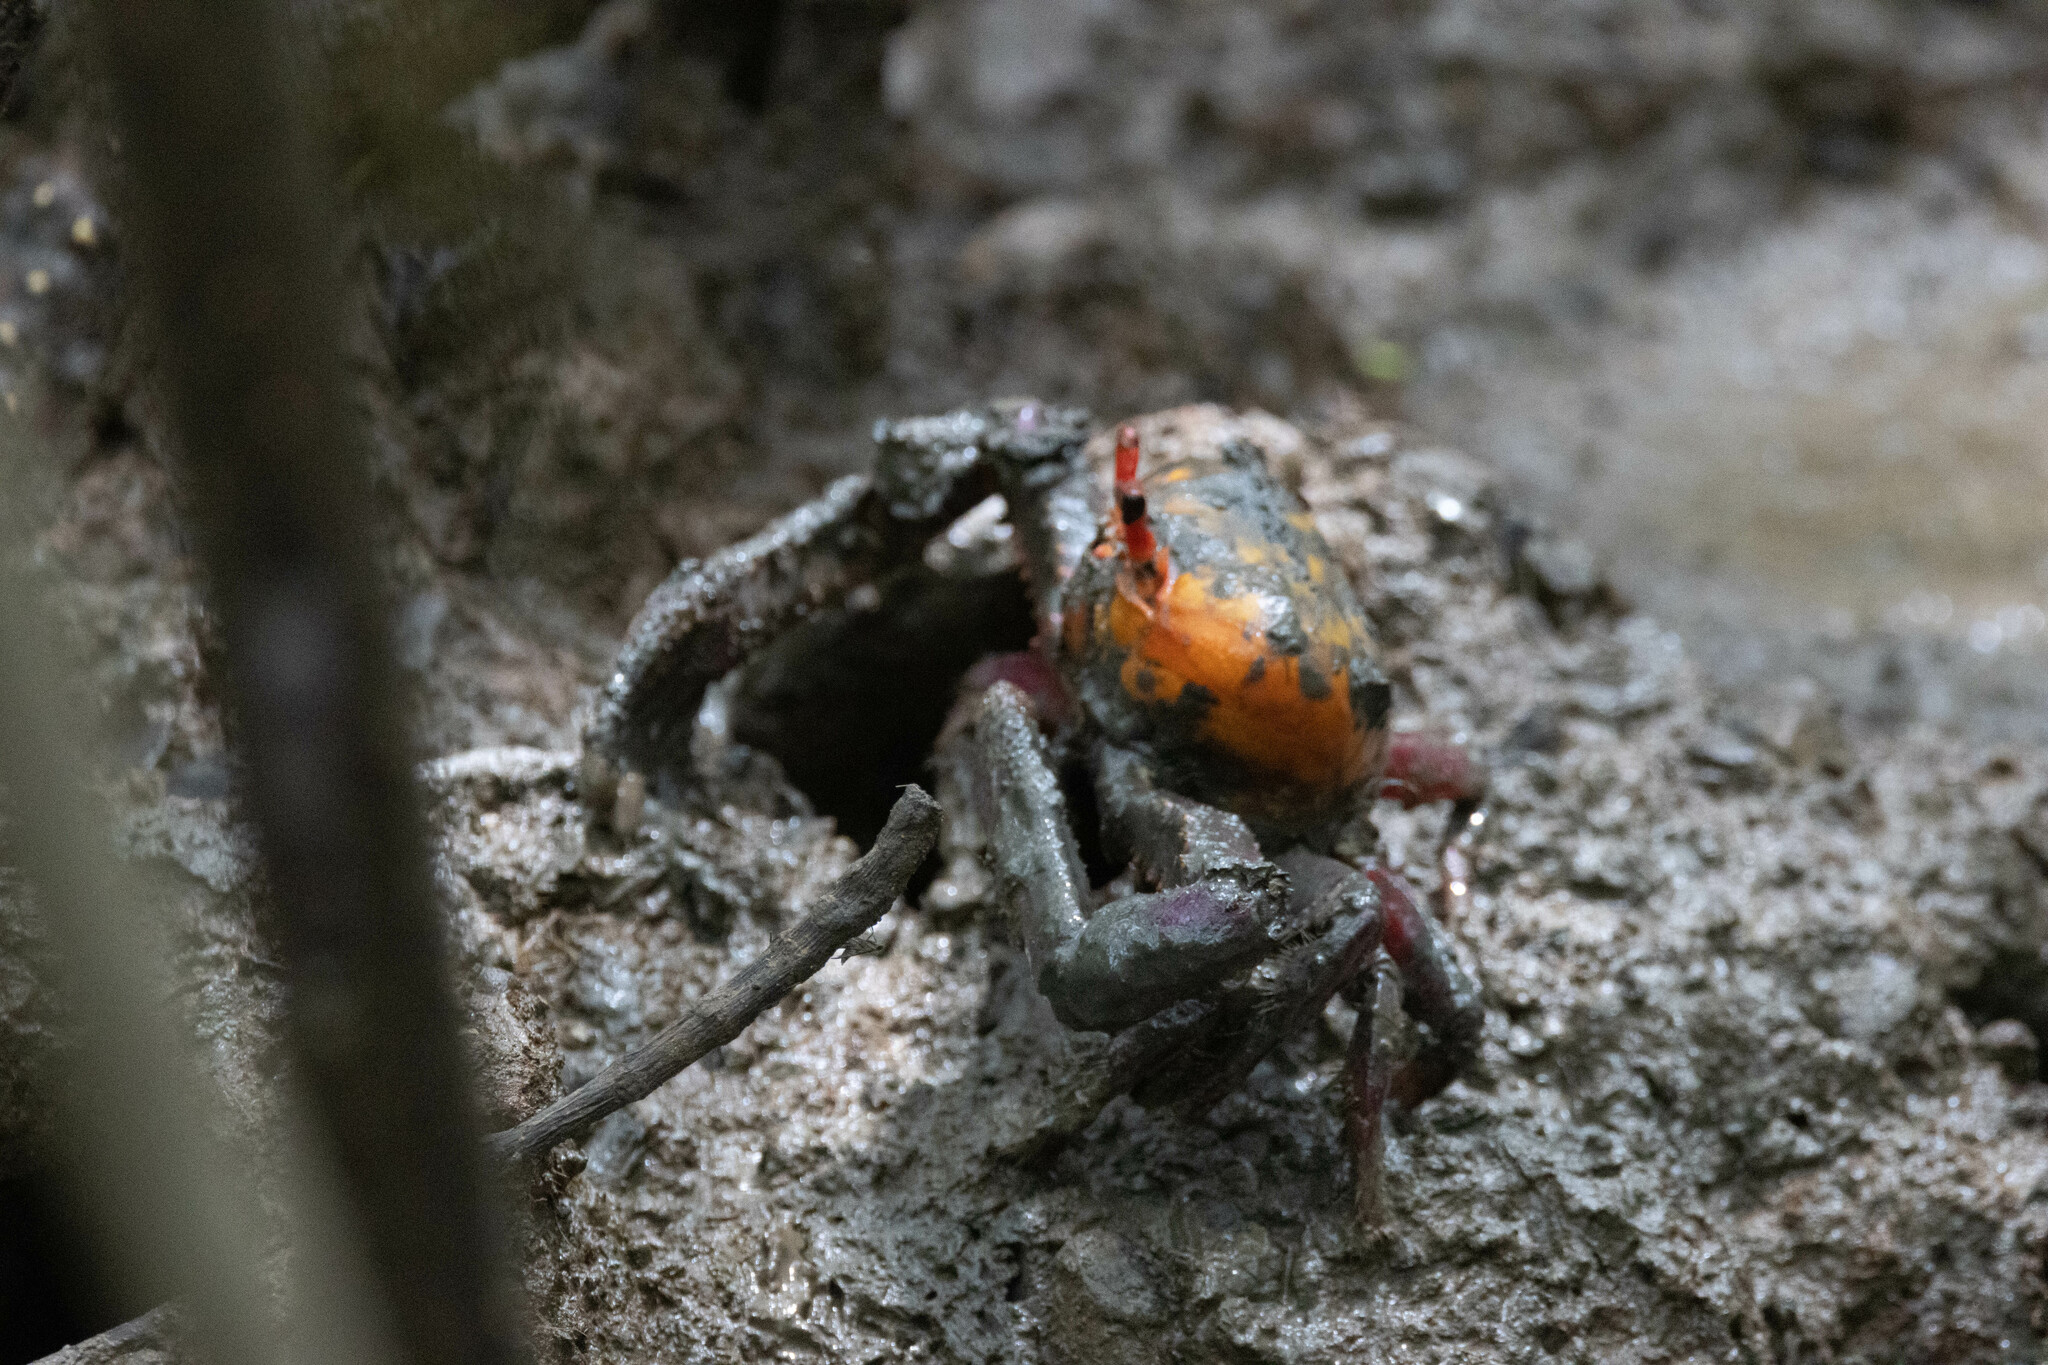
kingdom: Animalia
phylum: Arthropoda
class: Malacostraca
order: Decapoda
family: Ocypodidae
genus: Ucides
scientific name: Ucides occidentalis
